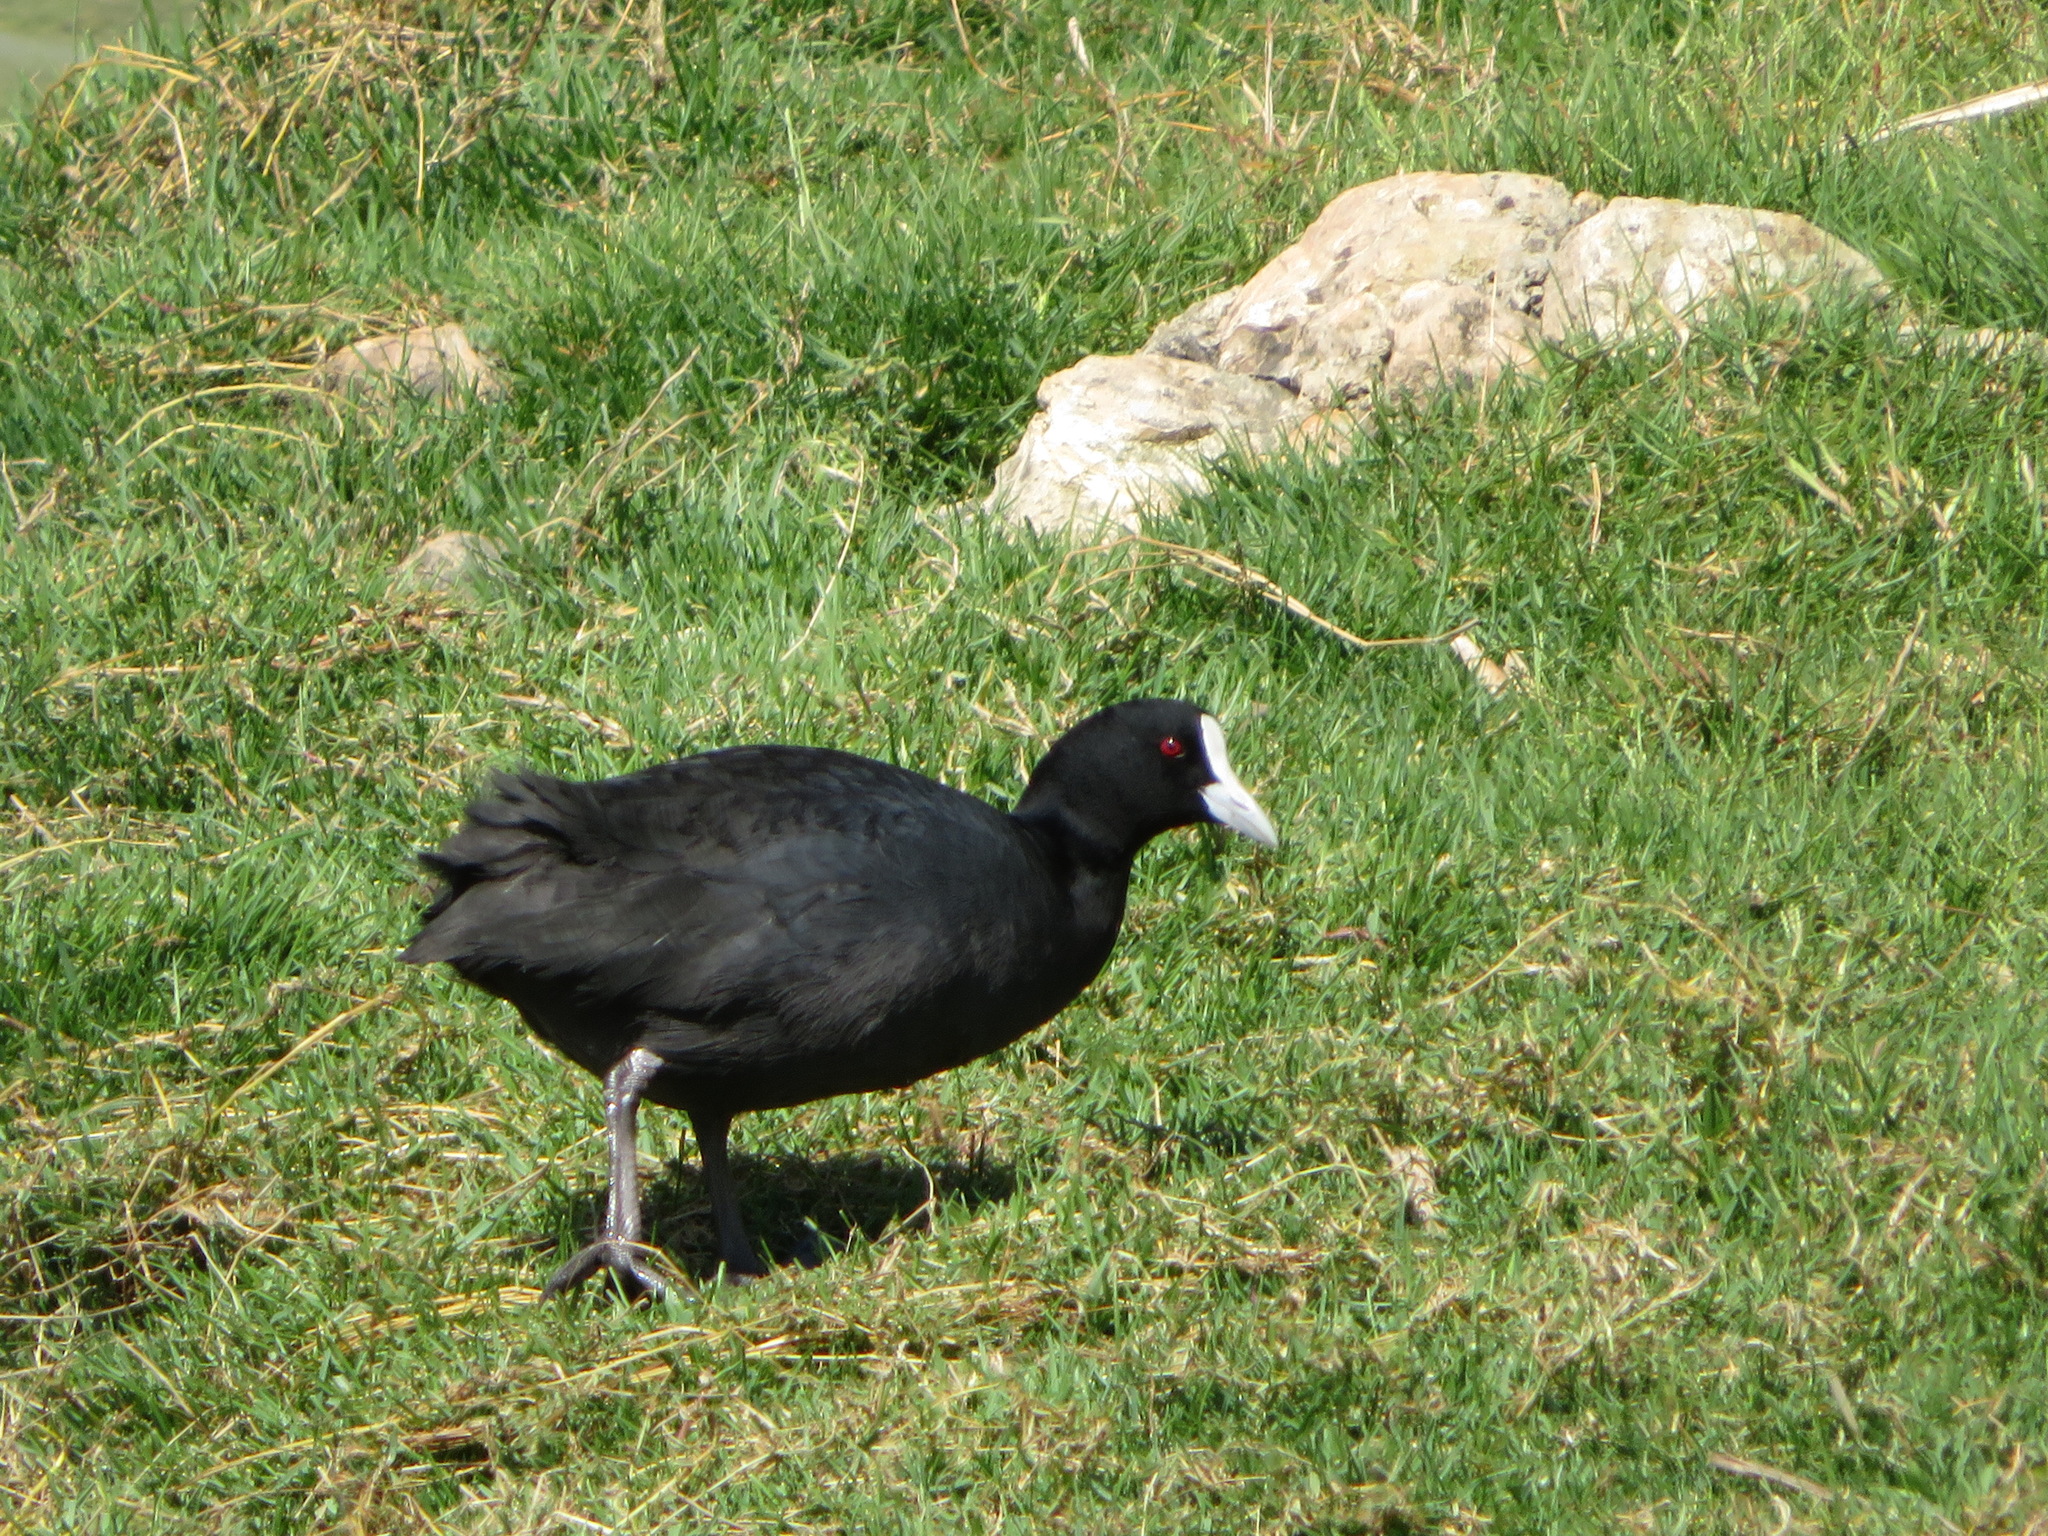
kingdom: Animalia
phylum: Chordata
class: Aves
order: Gruiformes
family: Rallidae
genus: Fulica
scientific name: Fulica atra
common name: Eurasian coot
